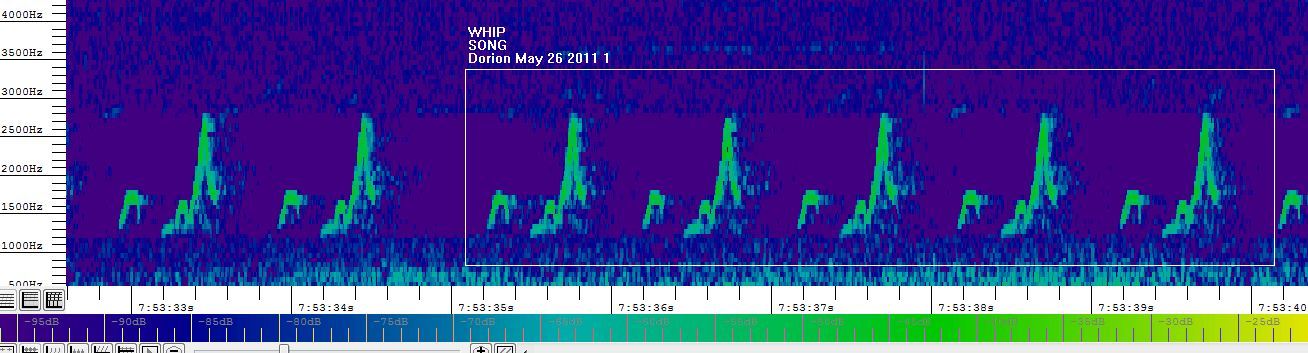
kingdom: Animalia
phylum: Chordata
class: Aves
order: Caprimulgiformes
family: Caprimulgidae
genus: Antrostomus
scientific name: Antrostomus vociferus
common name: Eastern whip-poor-will
